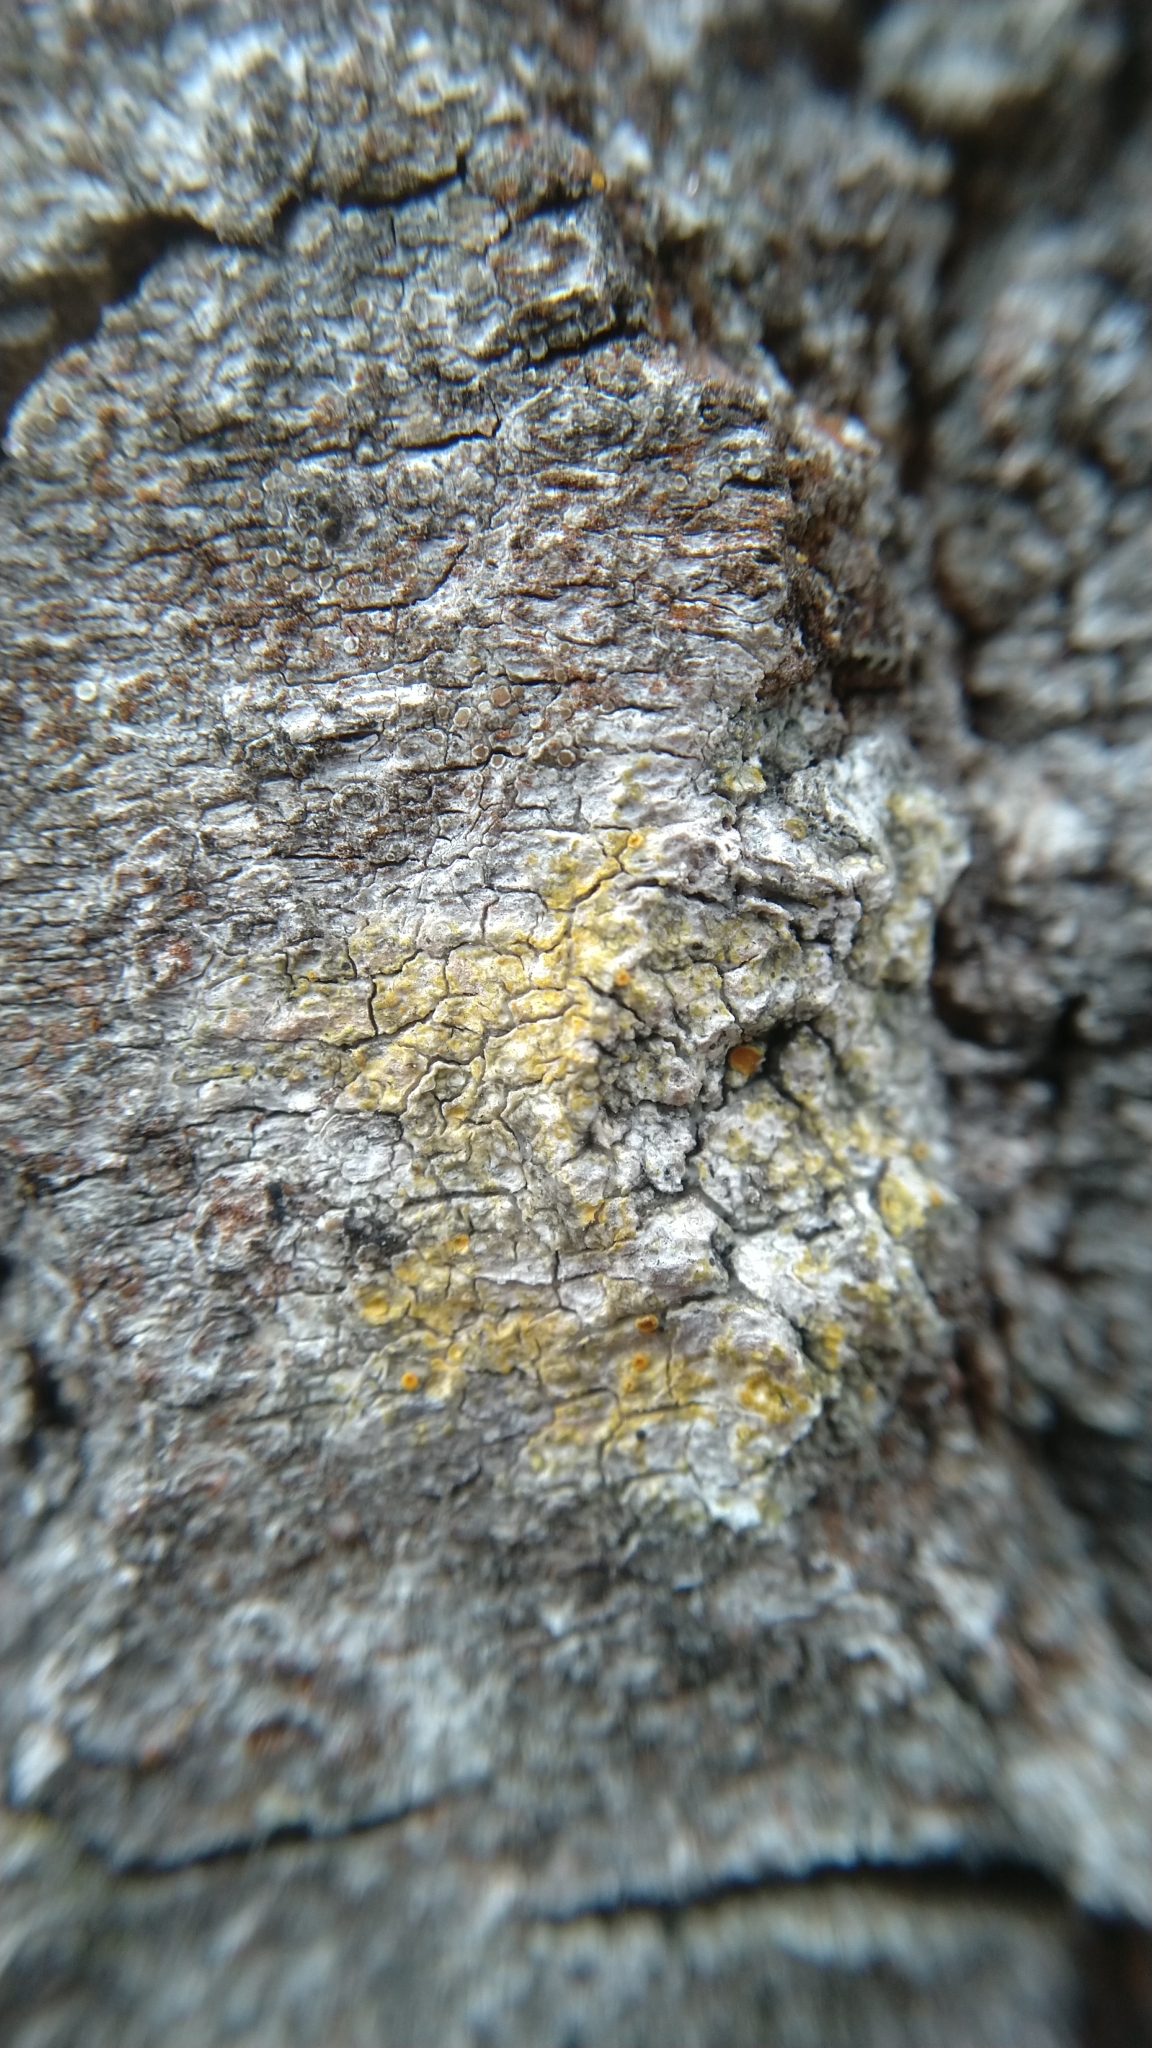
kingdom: Fungi
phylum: Ascomycota
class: Lecanoromycetes
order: Teloschistales
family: Teloschistaceae
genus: Opeltia
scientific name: Opeltia flavorubescens
